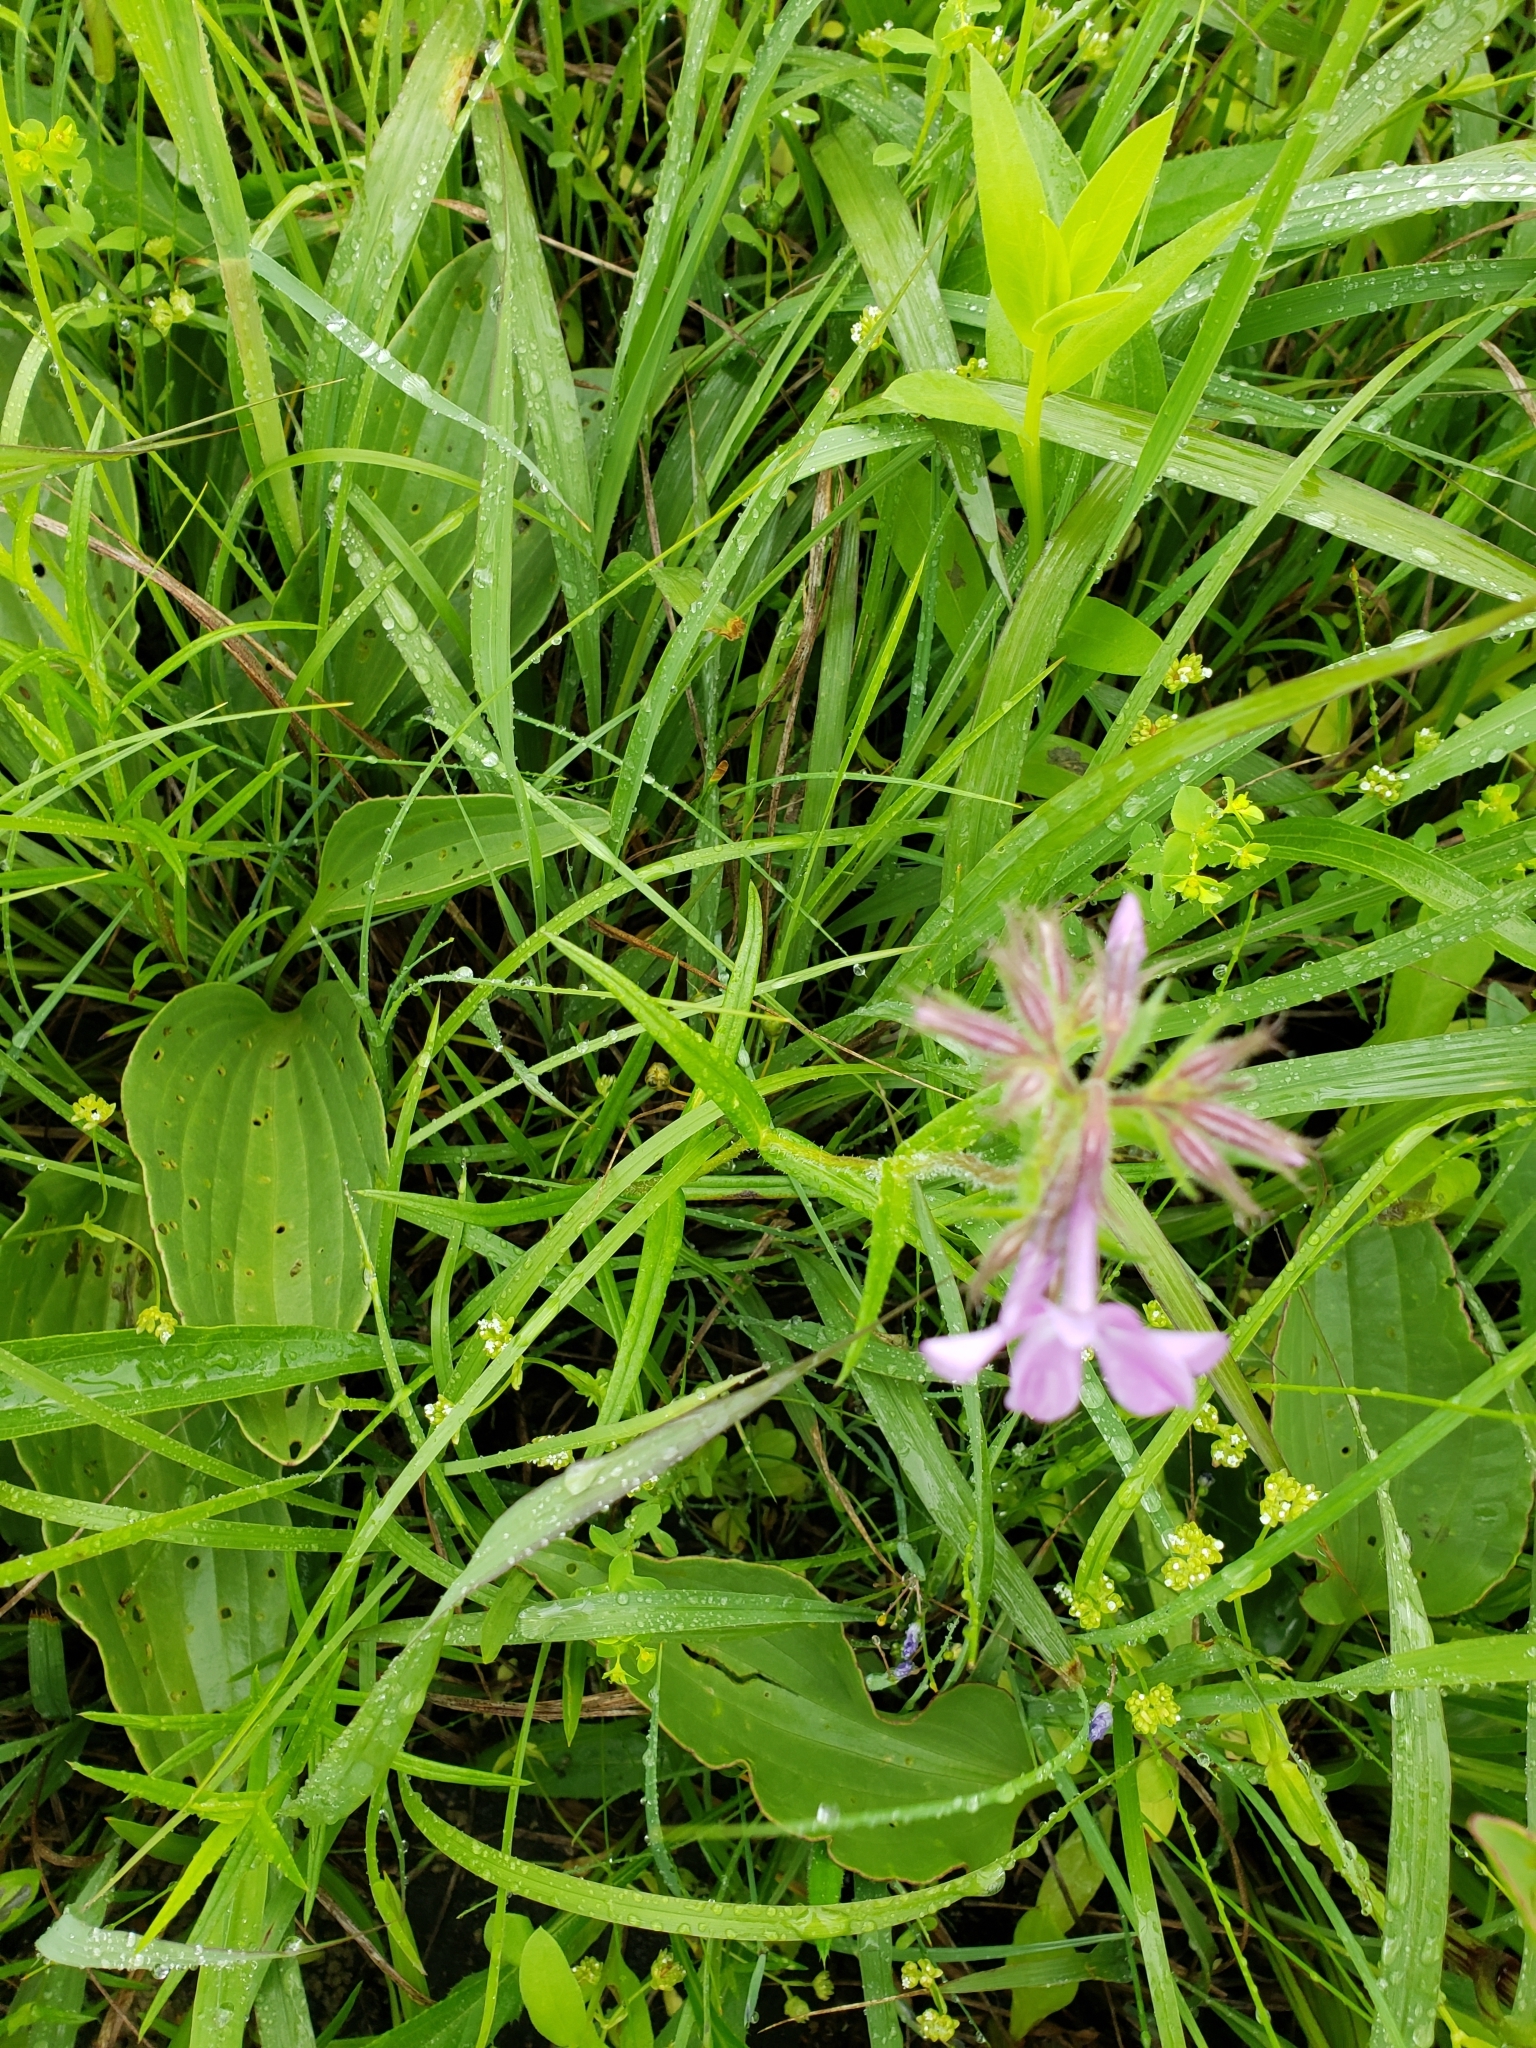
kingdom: Plantae
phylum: Tracheophyta
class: Magnoliopsida
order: Ericales
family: Polemoniaceae
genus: Phlox
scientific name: Phlox pilosa
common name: Prairie phlox
